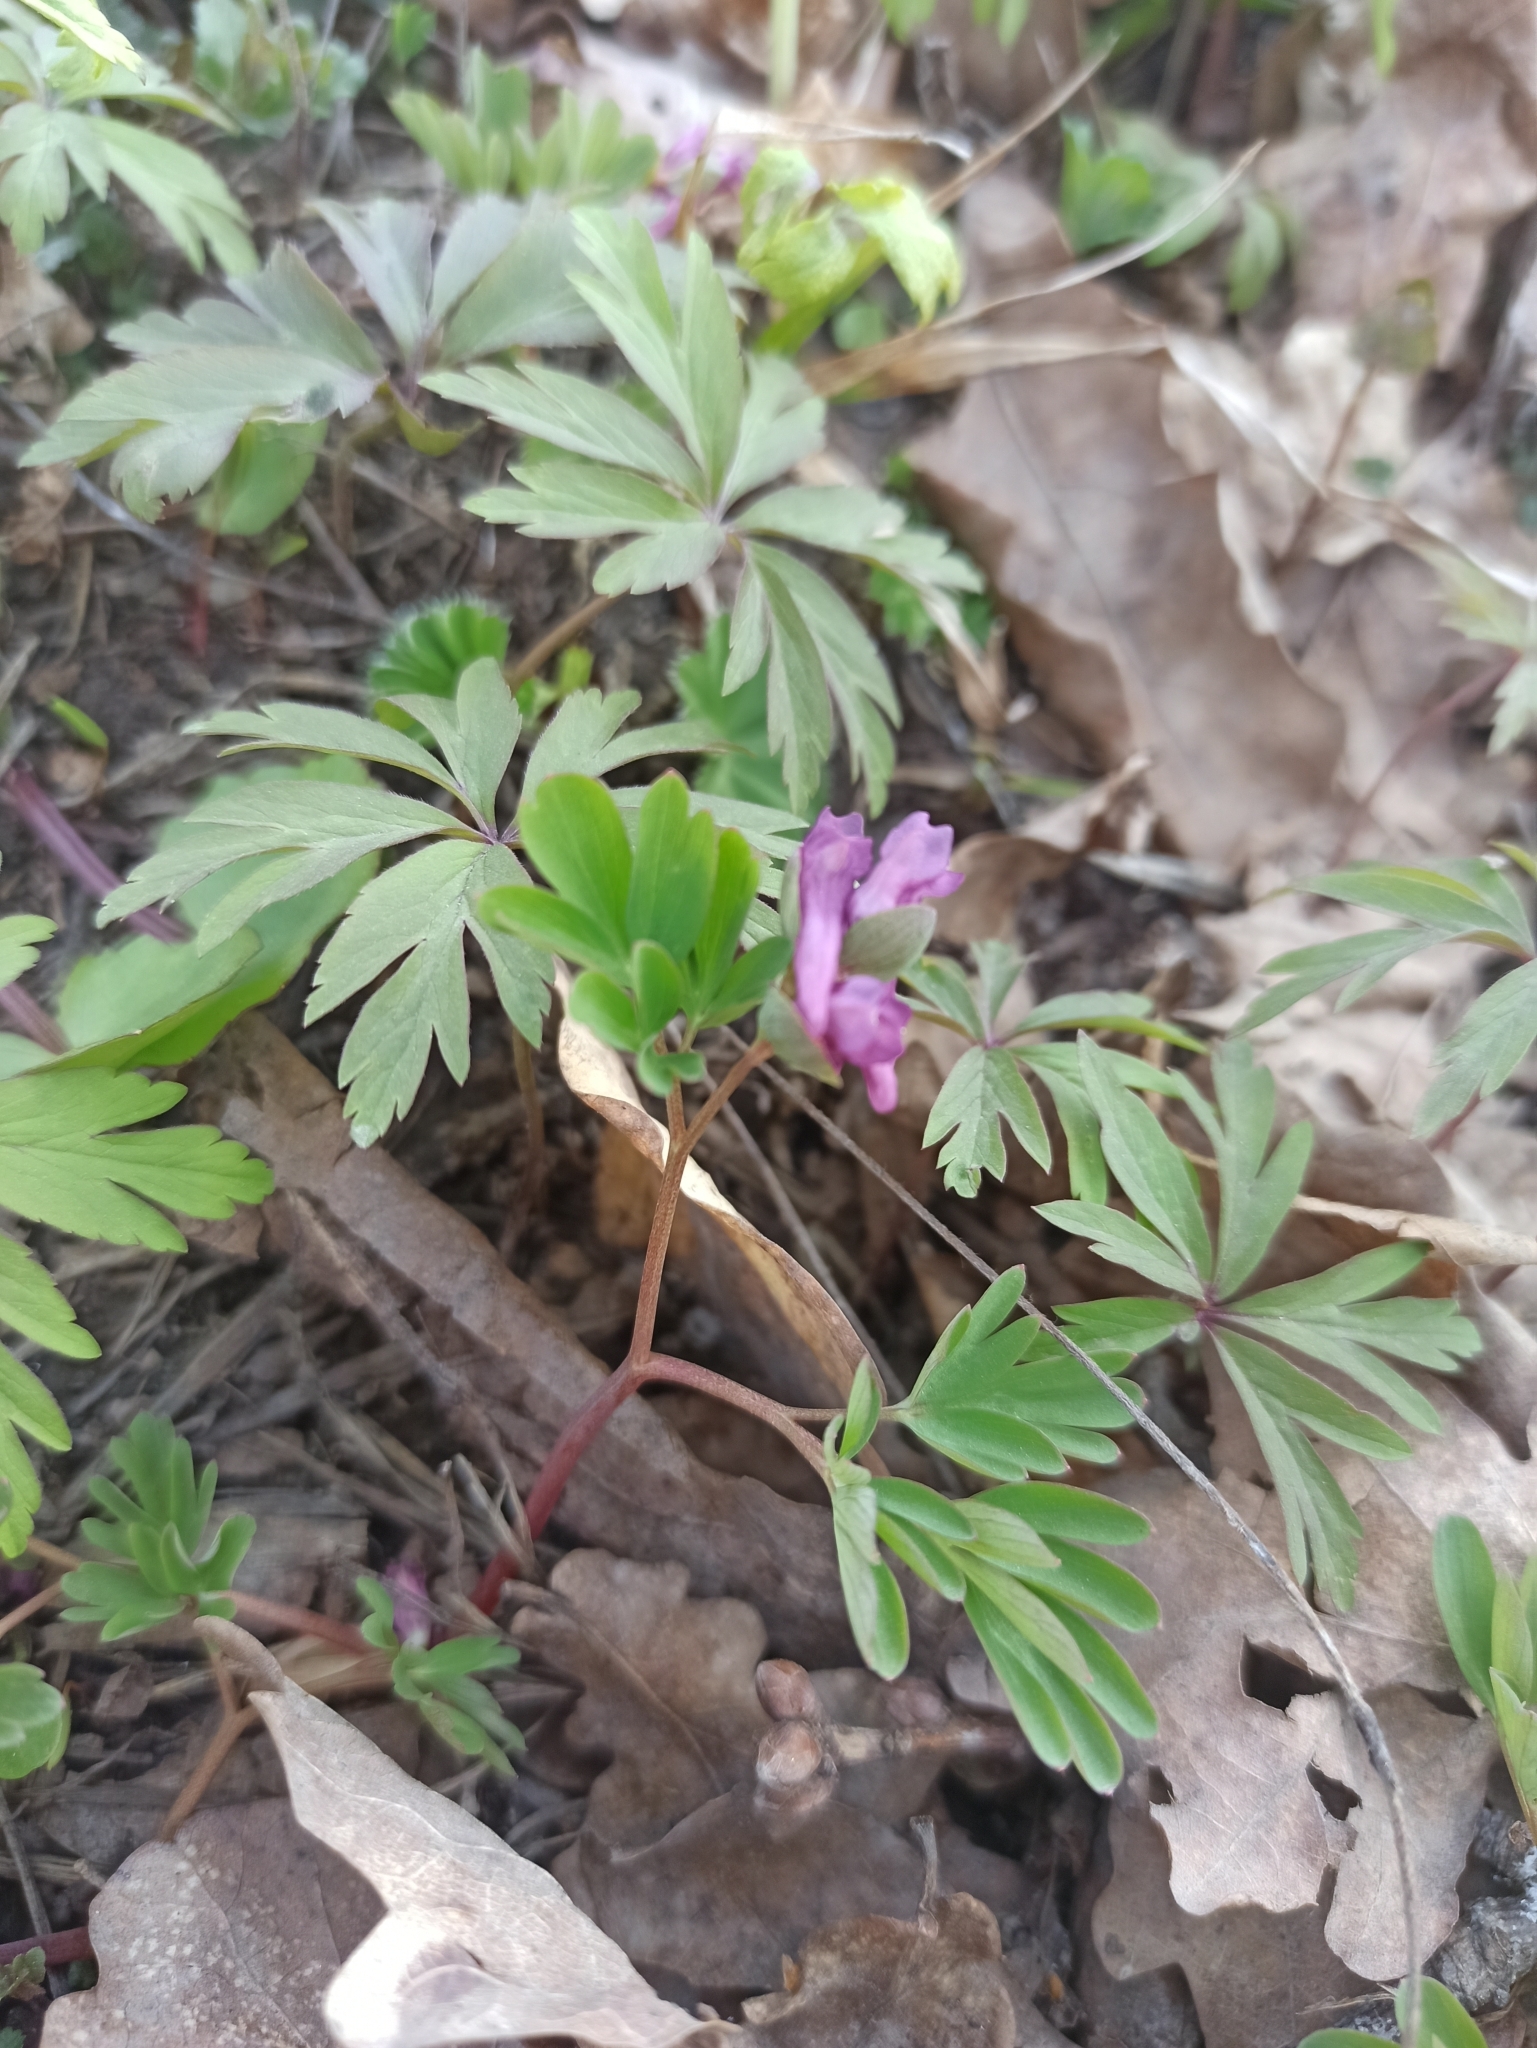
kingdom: Plantae
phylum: Tracheophyta
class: Magnoliopsida
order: Ranunculales
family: Papaveraceae
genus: Corydalis
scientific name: Corydalis intermedia
